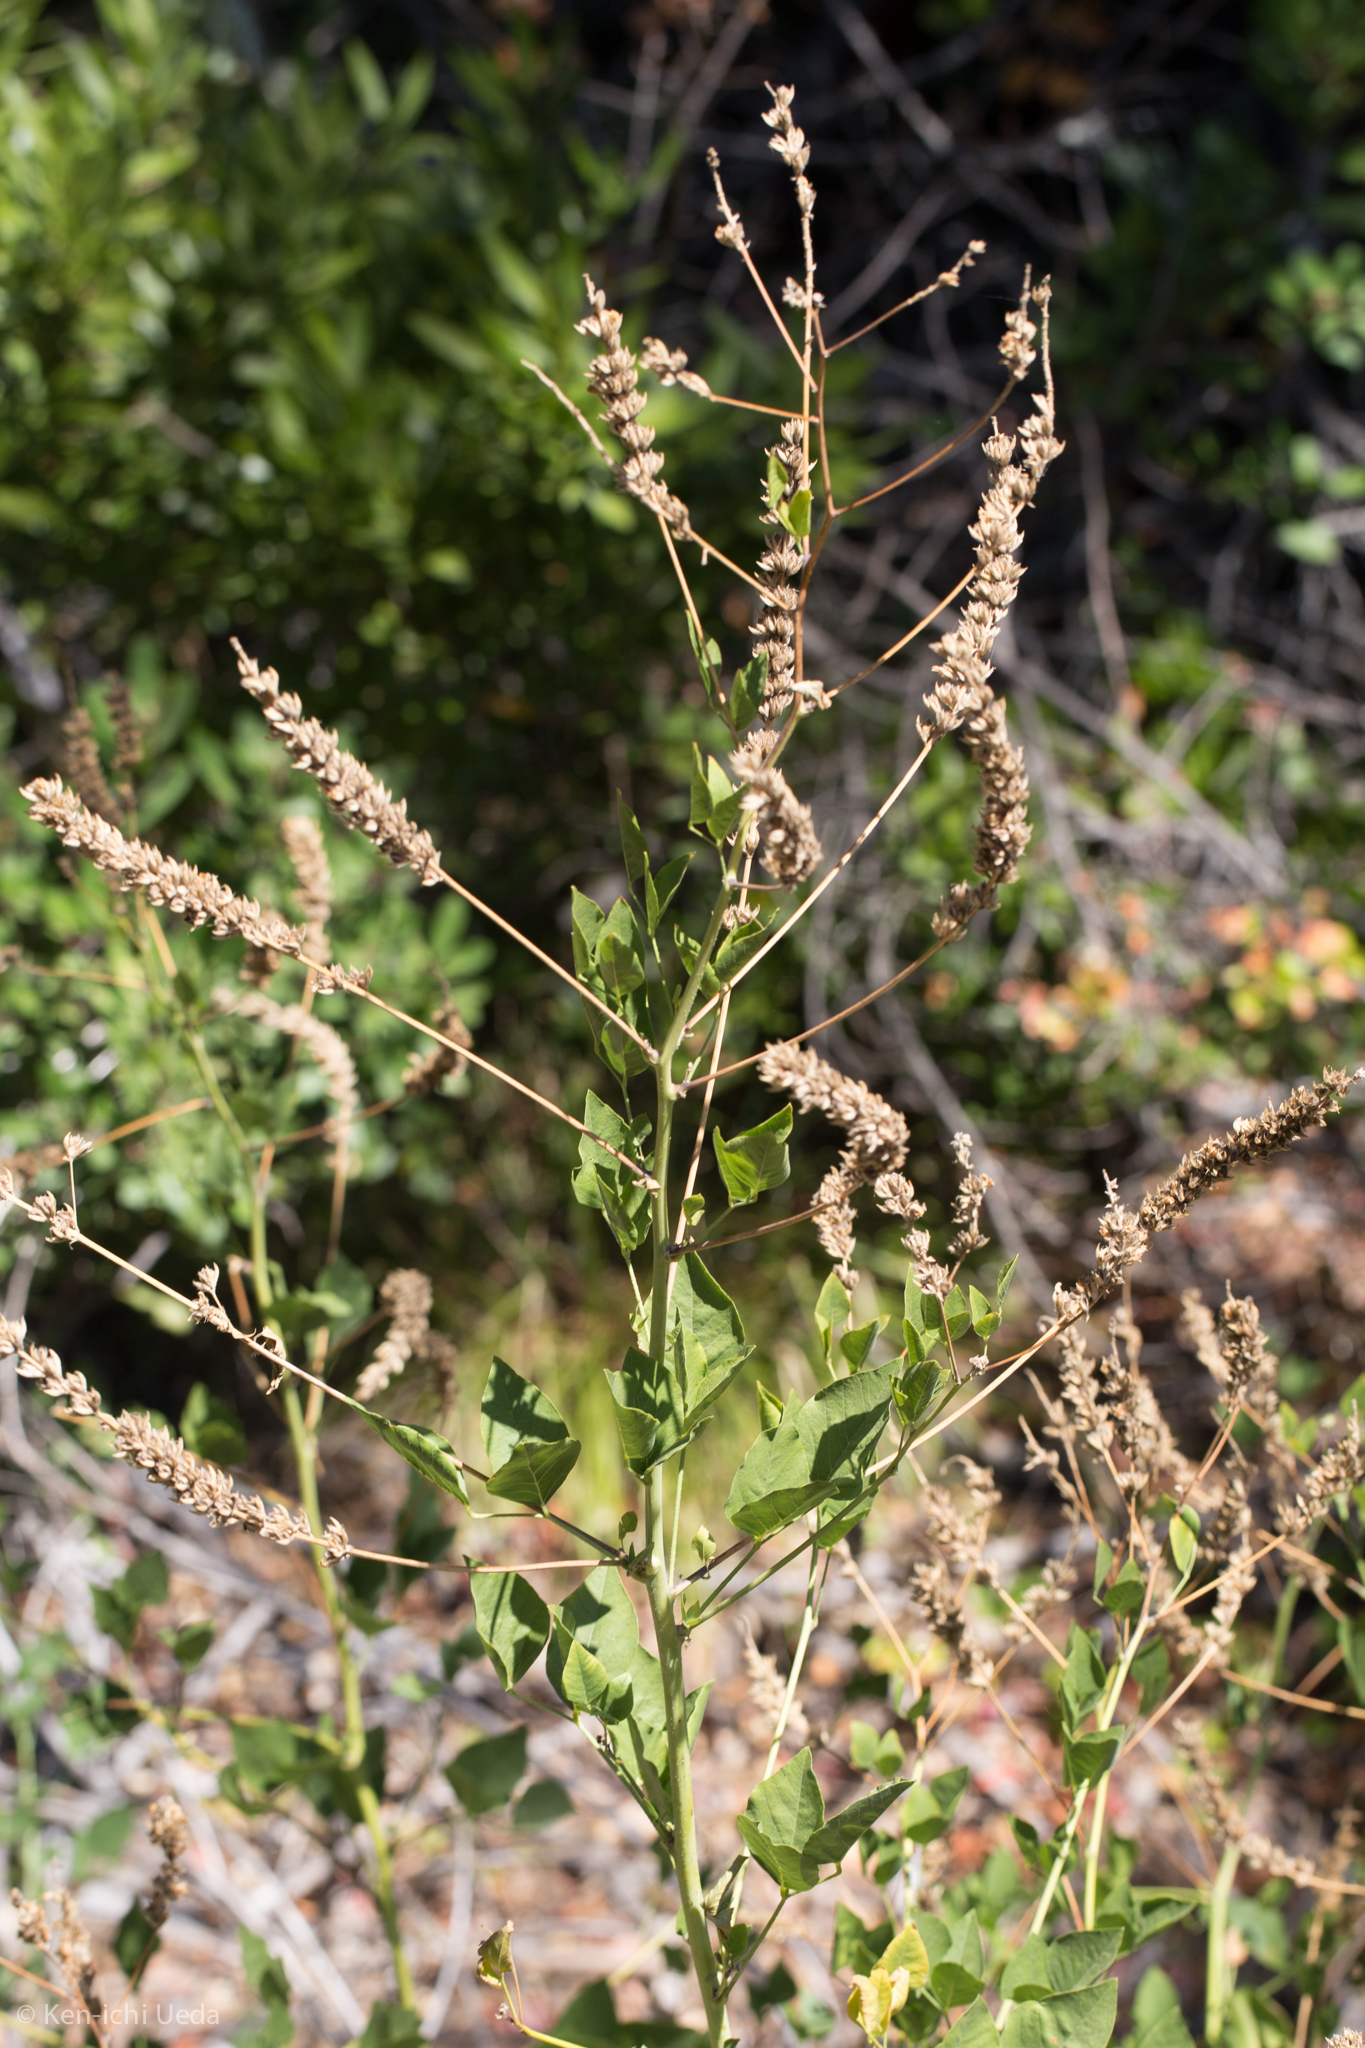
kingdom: Plantae
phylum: Tracheophyta
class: Magnoliopsida
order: Fabales
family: Fabaceae
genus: Hoita
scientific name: Hoita macrostachya
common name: Leatherroot
